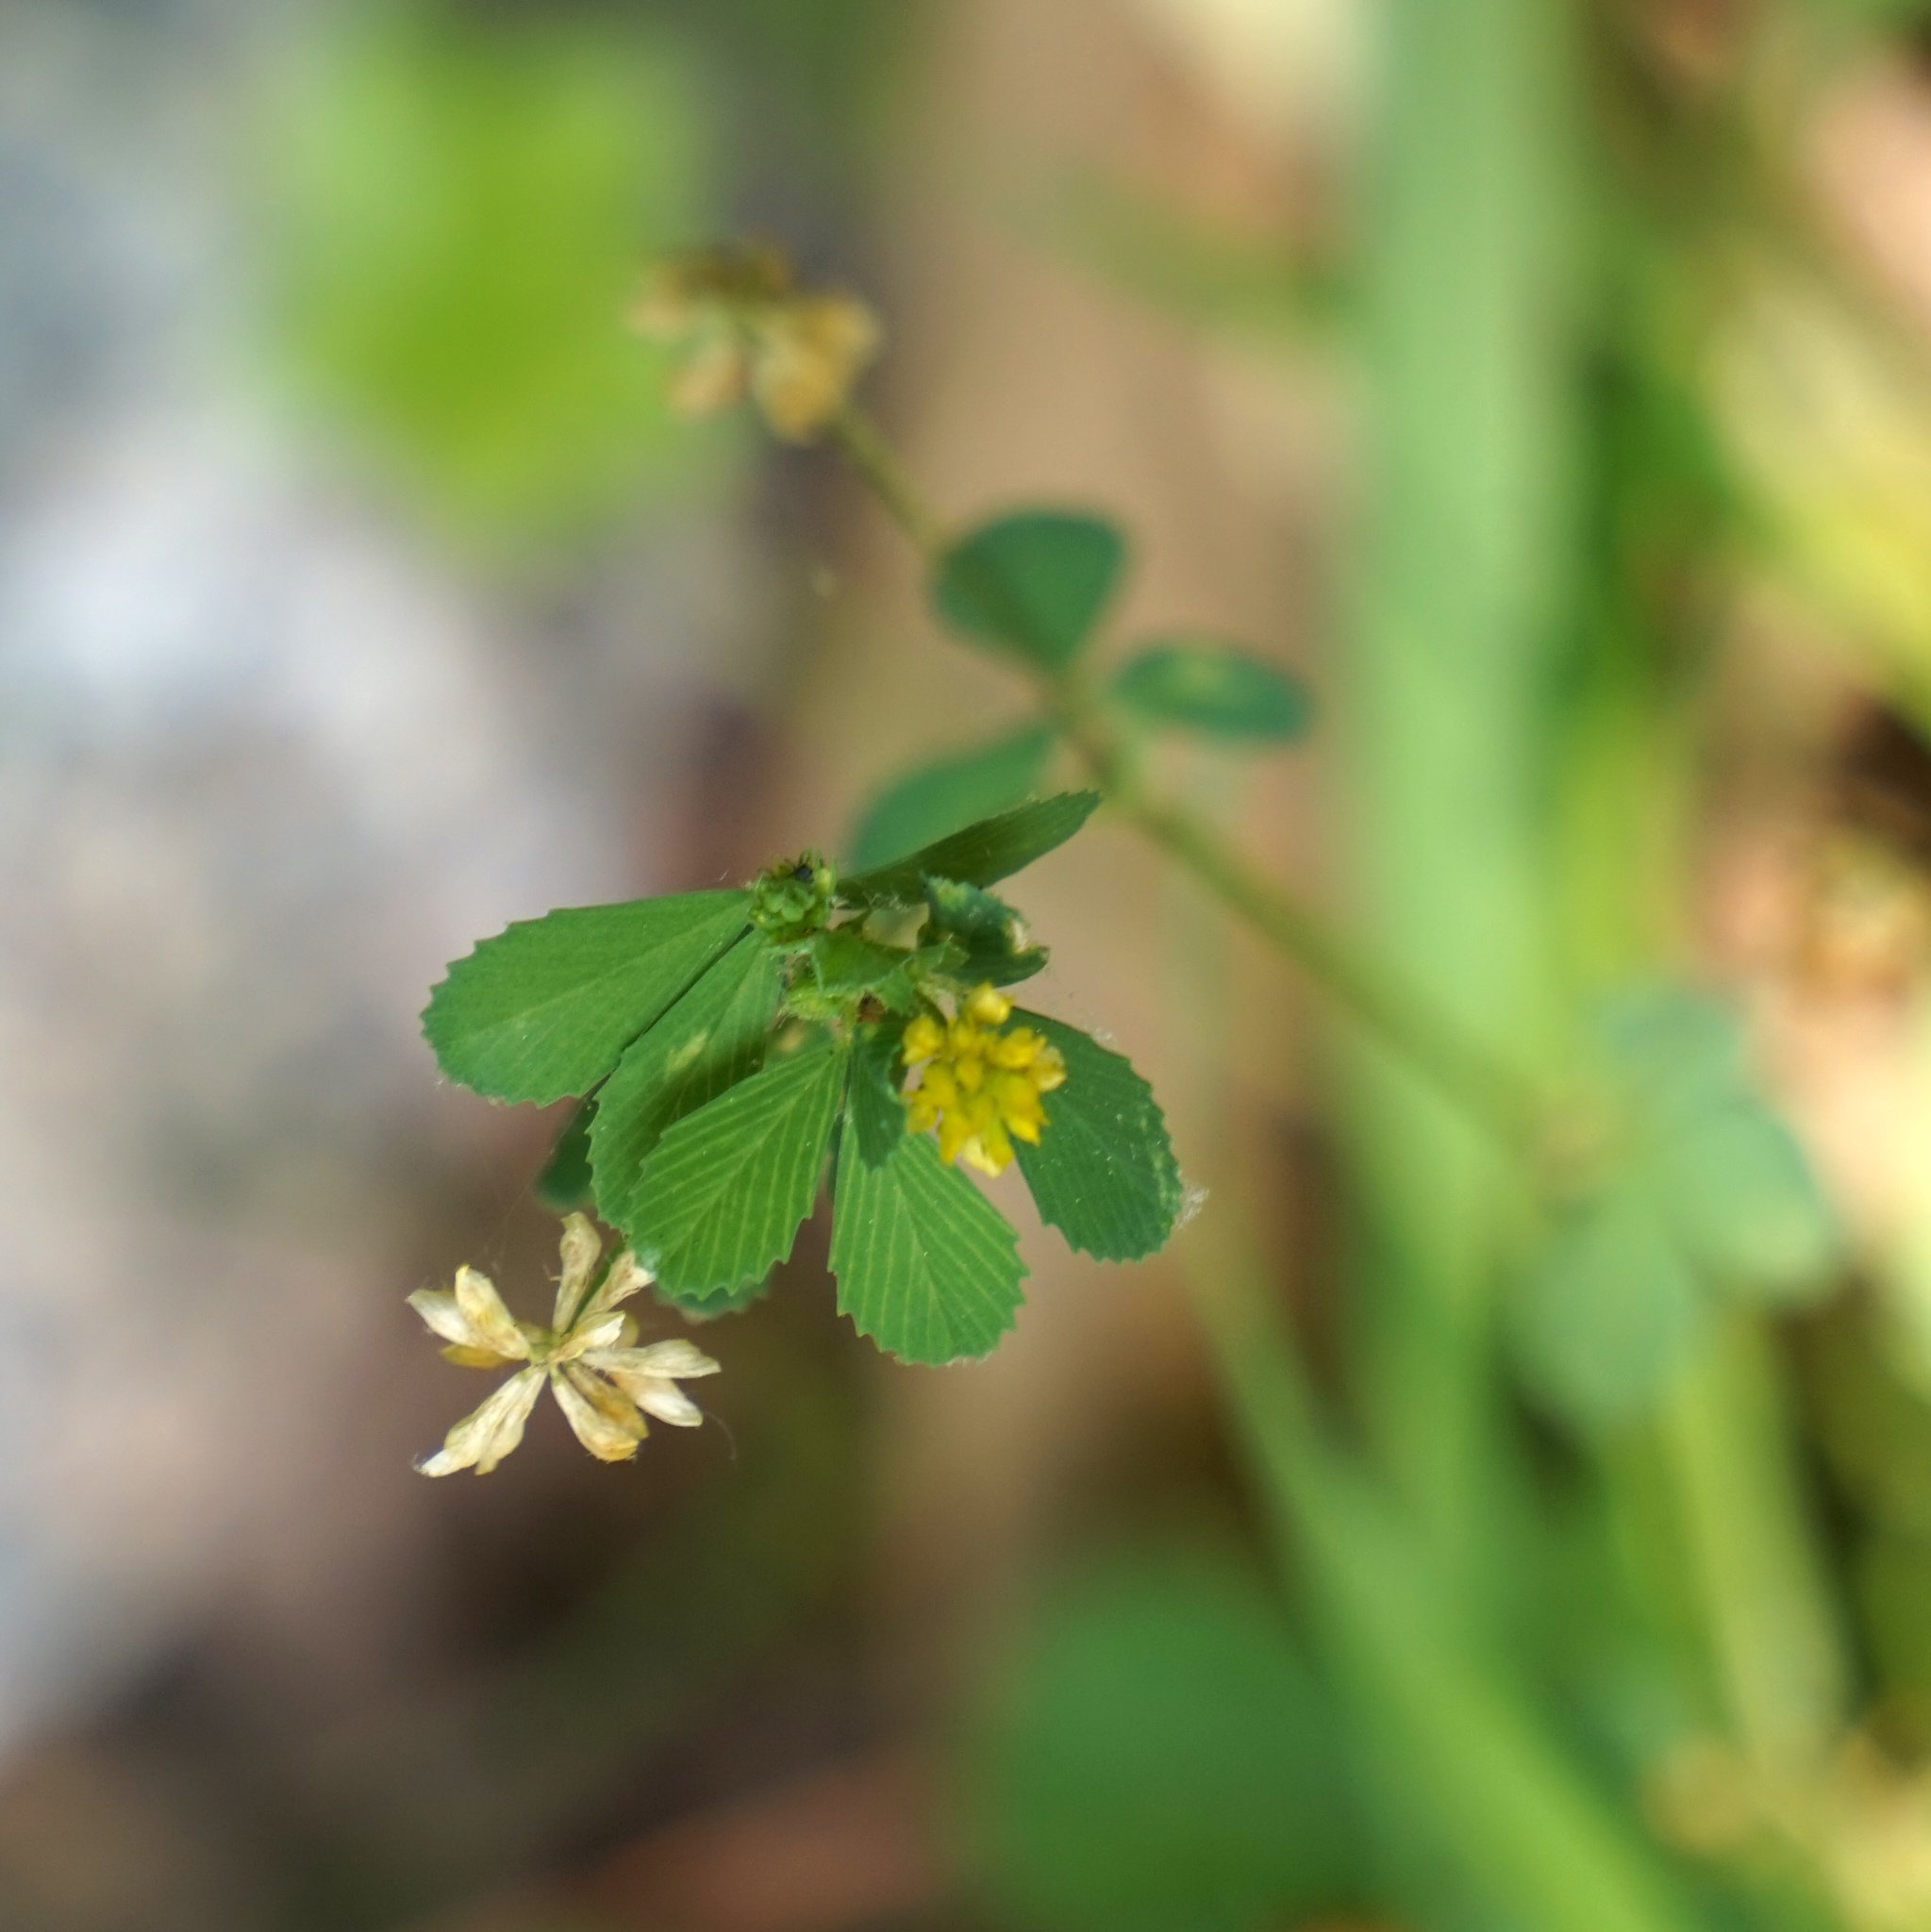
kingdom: Plantae
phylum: Tracheophyta
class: Magnoliopsida
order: Fabales
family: Fabaceae
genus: Trifolium
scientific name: Trifolium dubium
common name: Suckling clover
